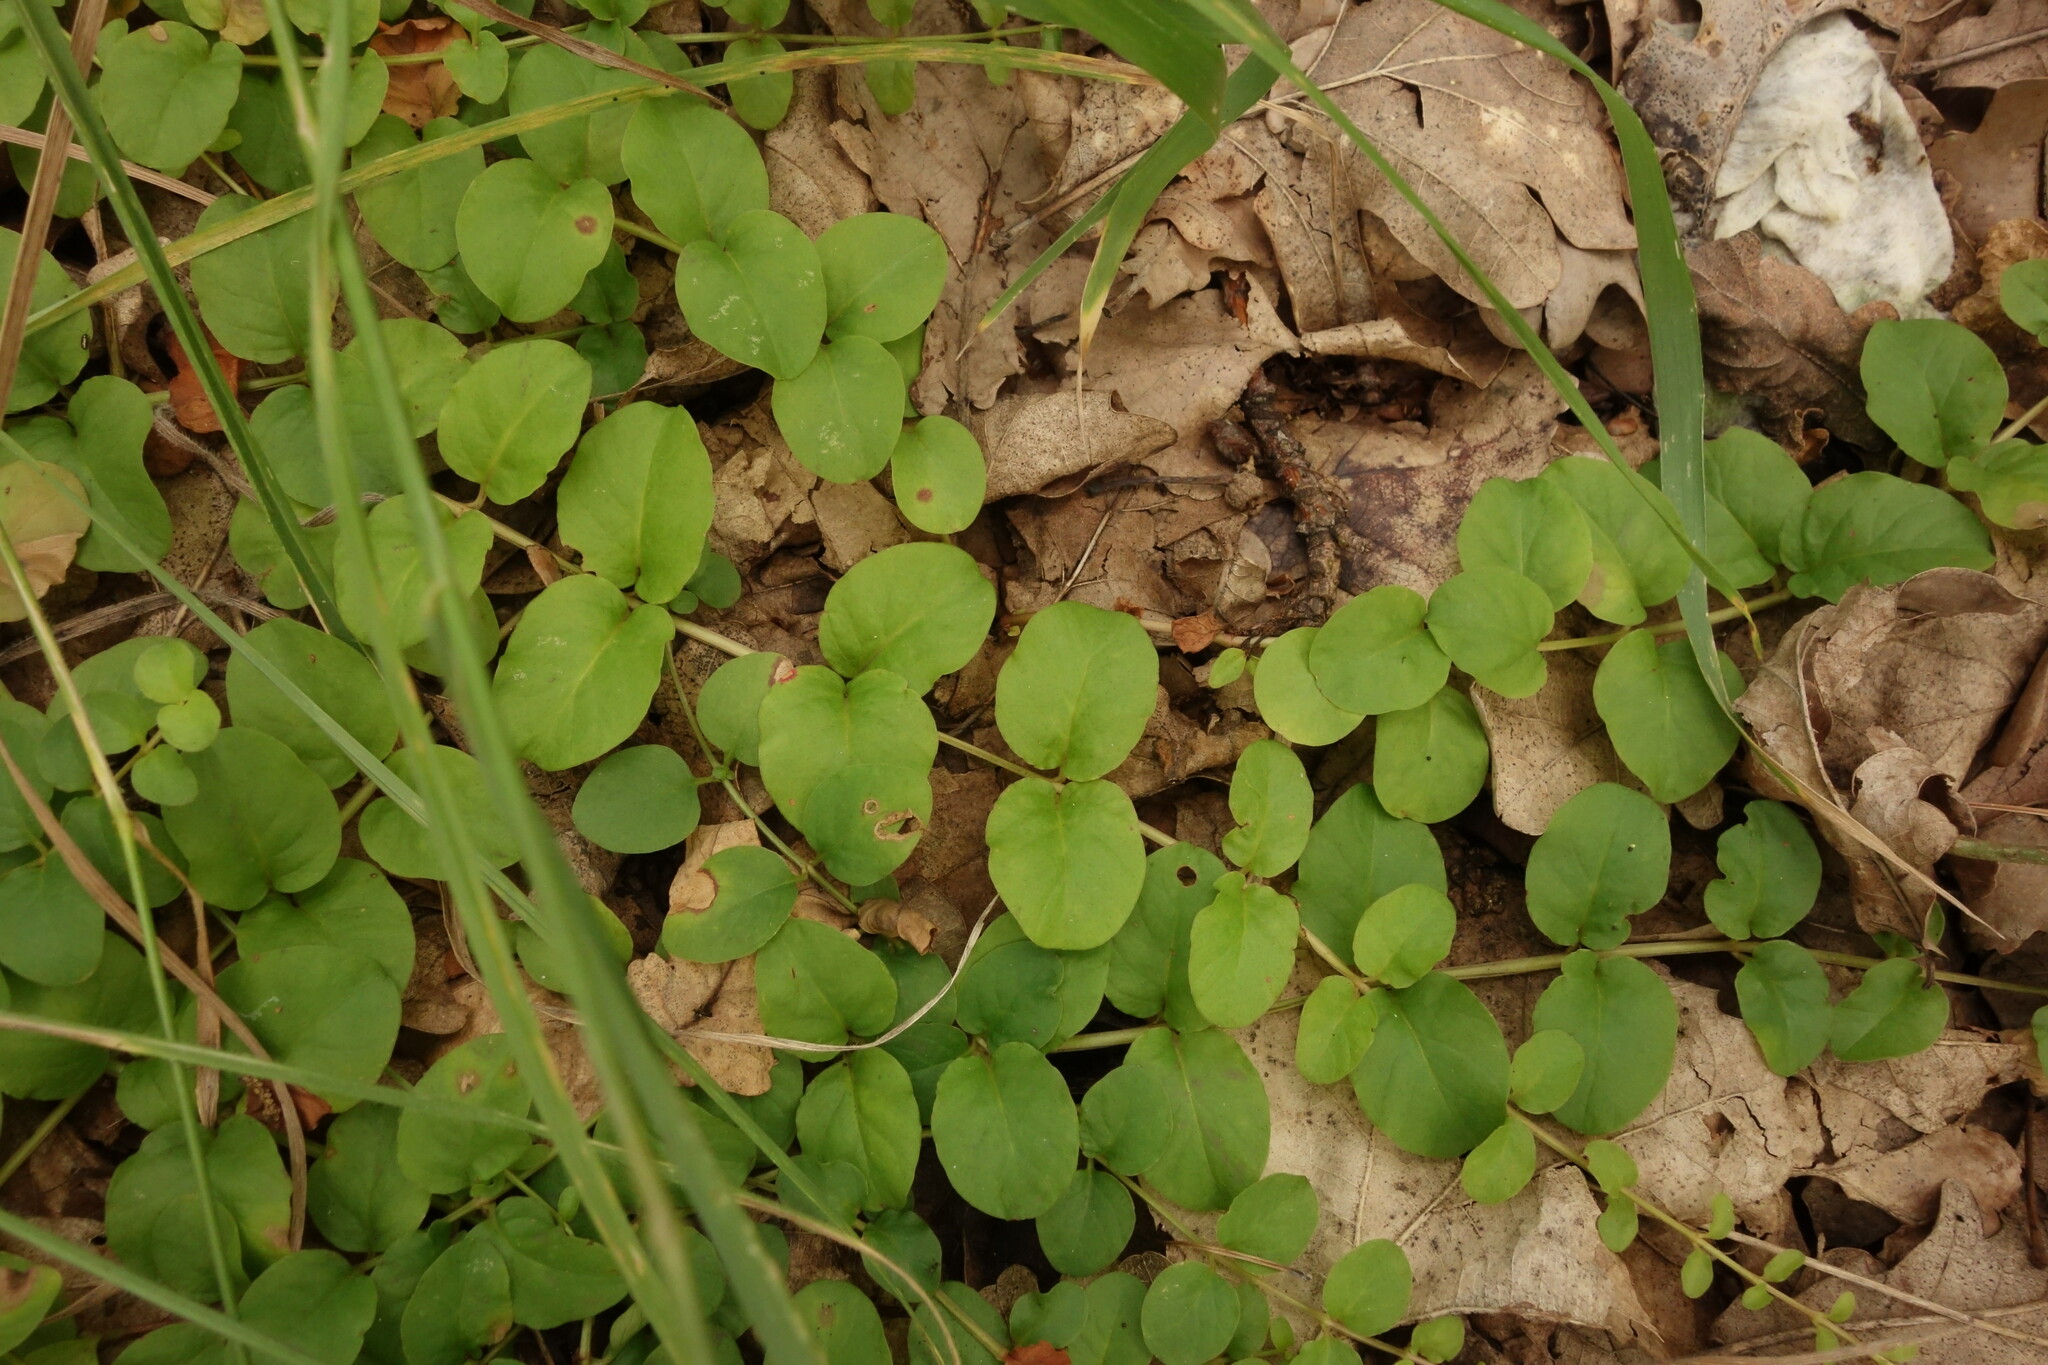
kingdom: Plantae
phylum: Tracheophyta
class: Magnoliopsida
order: Ericales
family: Primulaceae
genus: Lysimachia
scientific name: Lysimachia nummularia
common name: Moneywort
